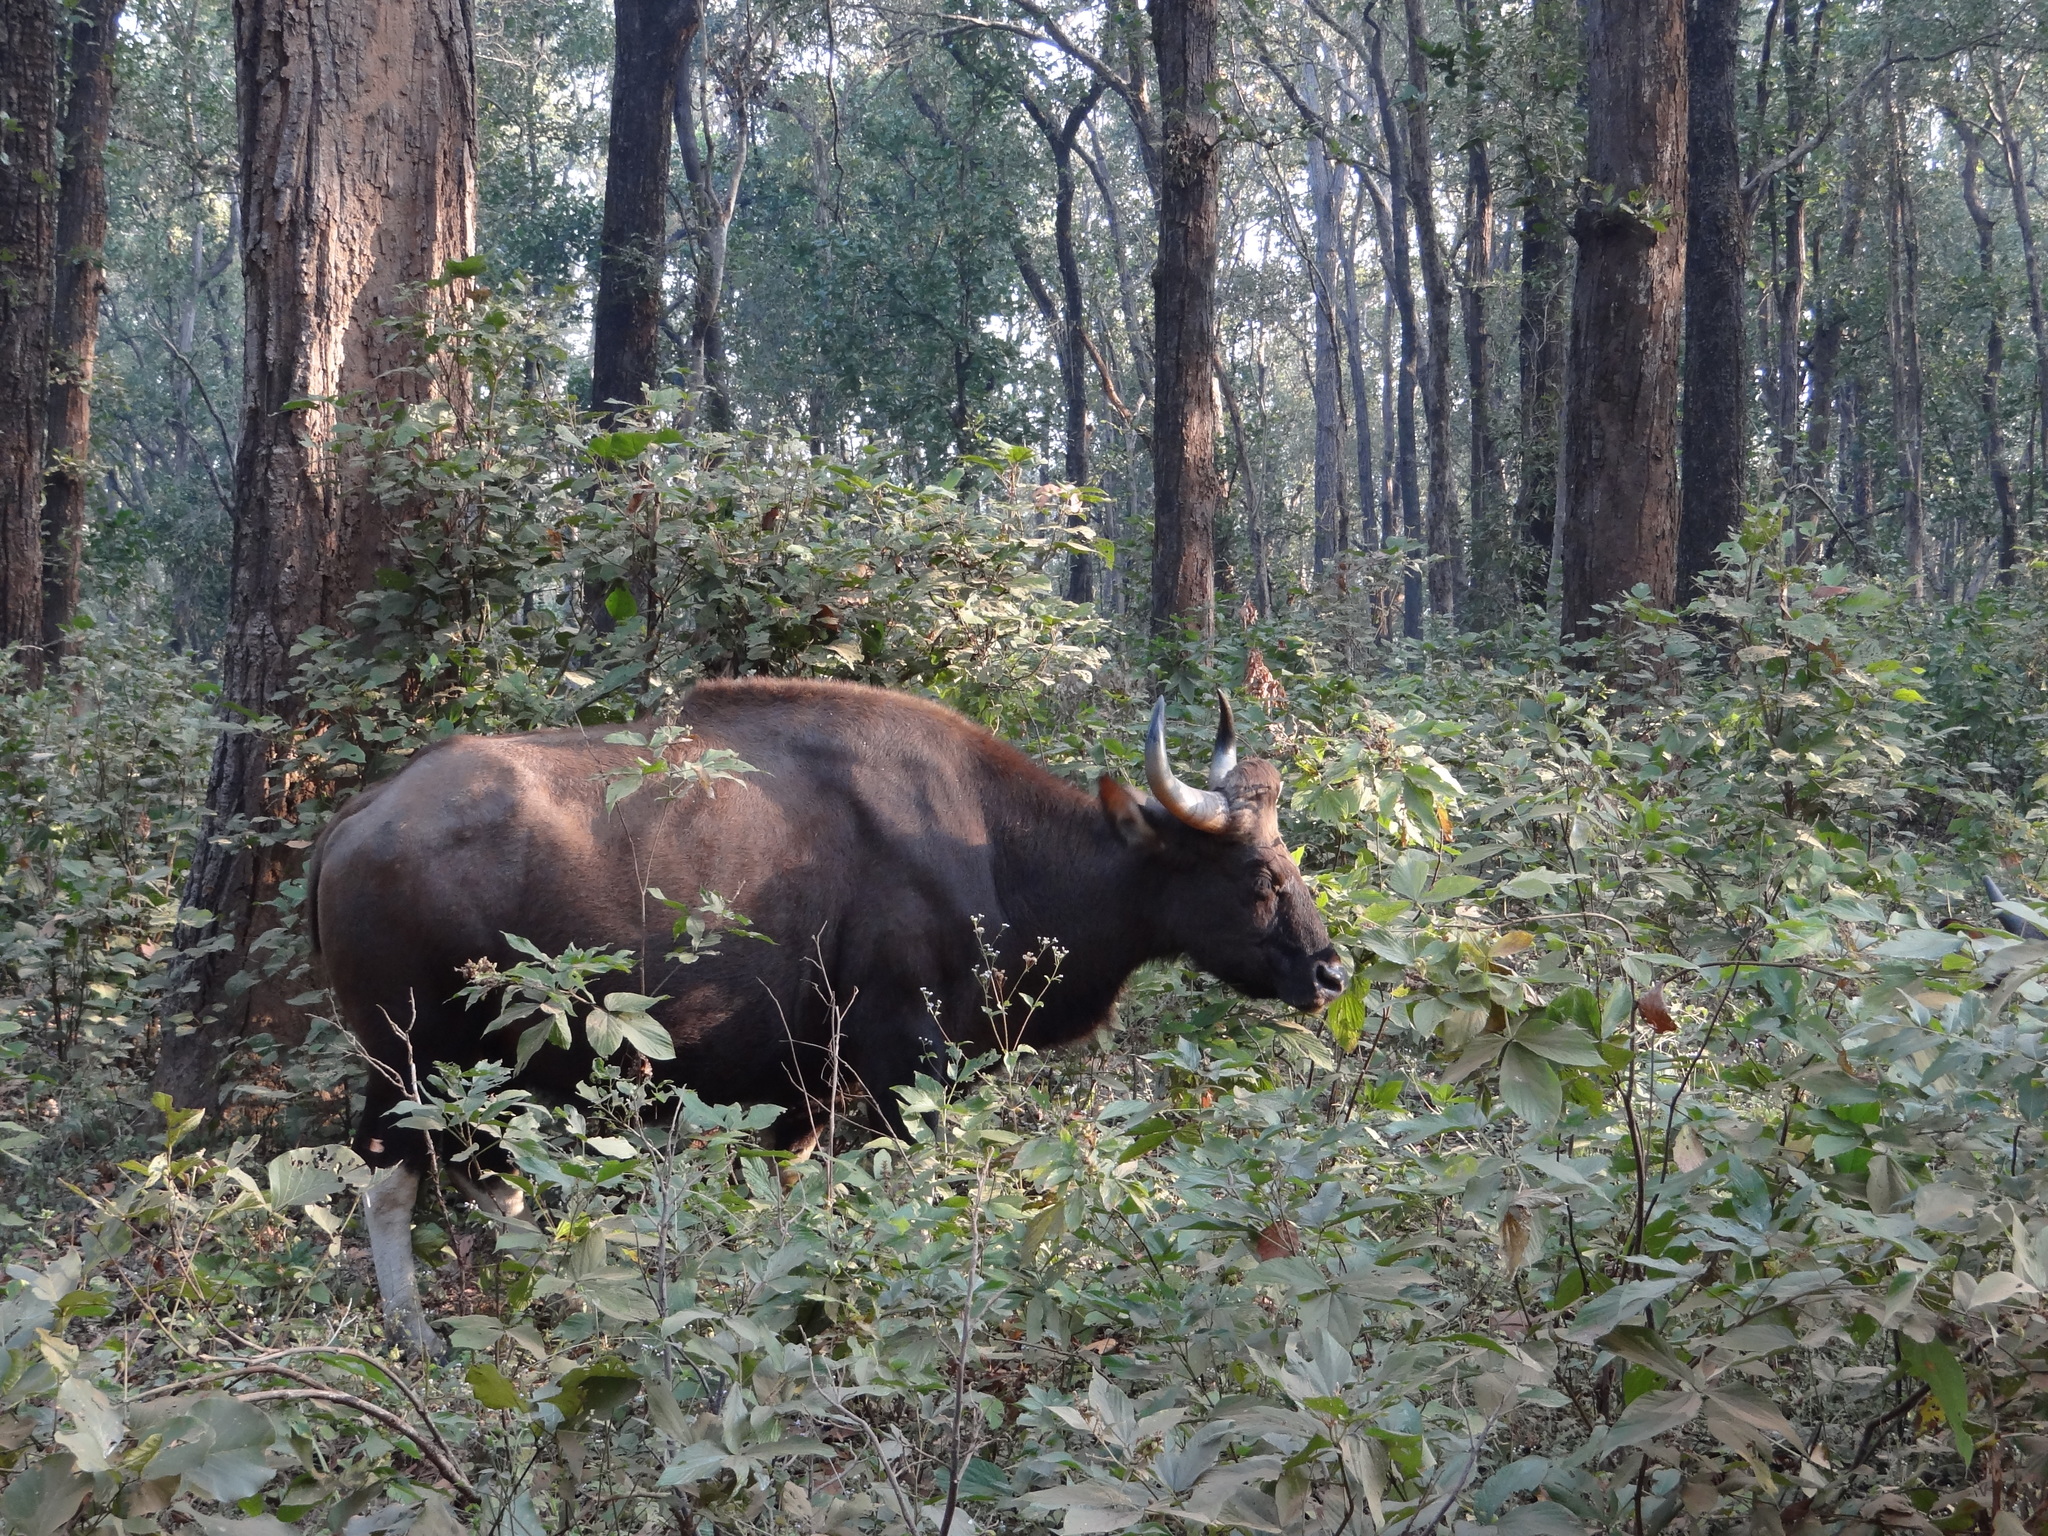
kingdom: Animalia
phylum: Chordata
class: Mammalia
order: Artiodactyla
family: Bovidae
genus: Bos
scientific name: Bos frontalis
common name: Gaur
